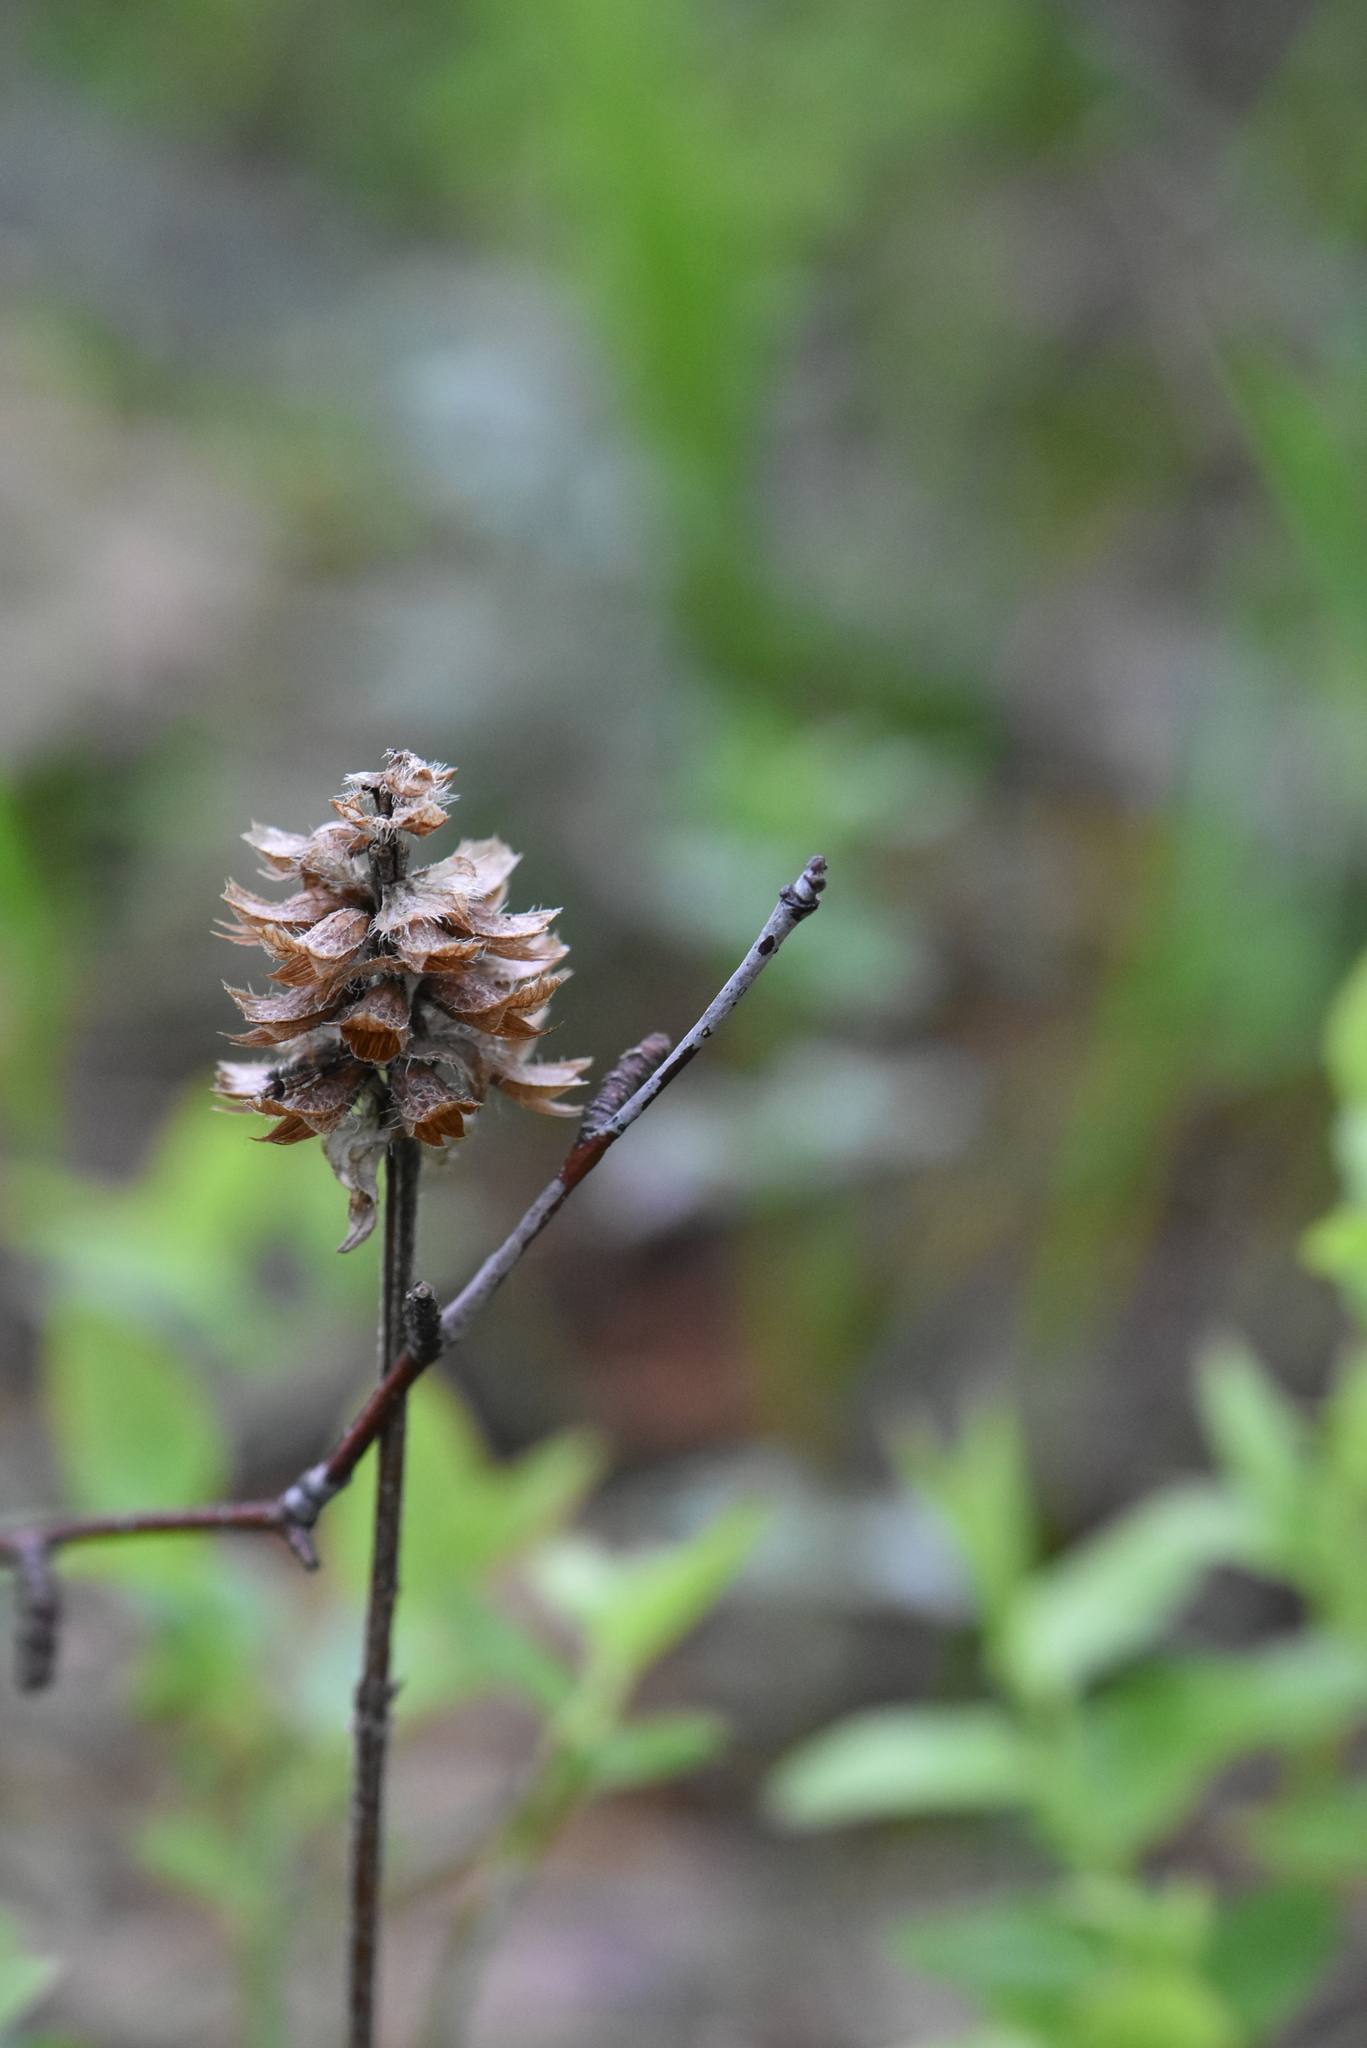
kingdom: Plantae
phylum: Tracheophyta
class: Magnoliopsida
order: Lamiales
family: Lamiaceae
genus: Prunella
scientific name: Prunella vulgaris
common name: Heal-all
